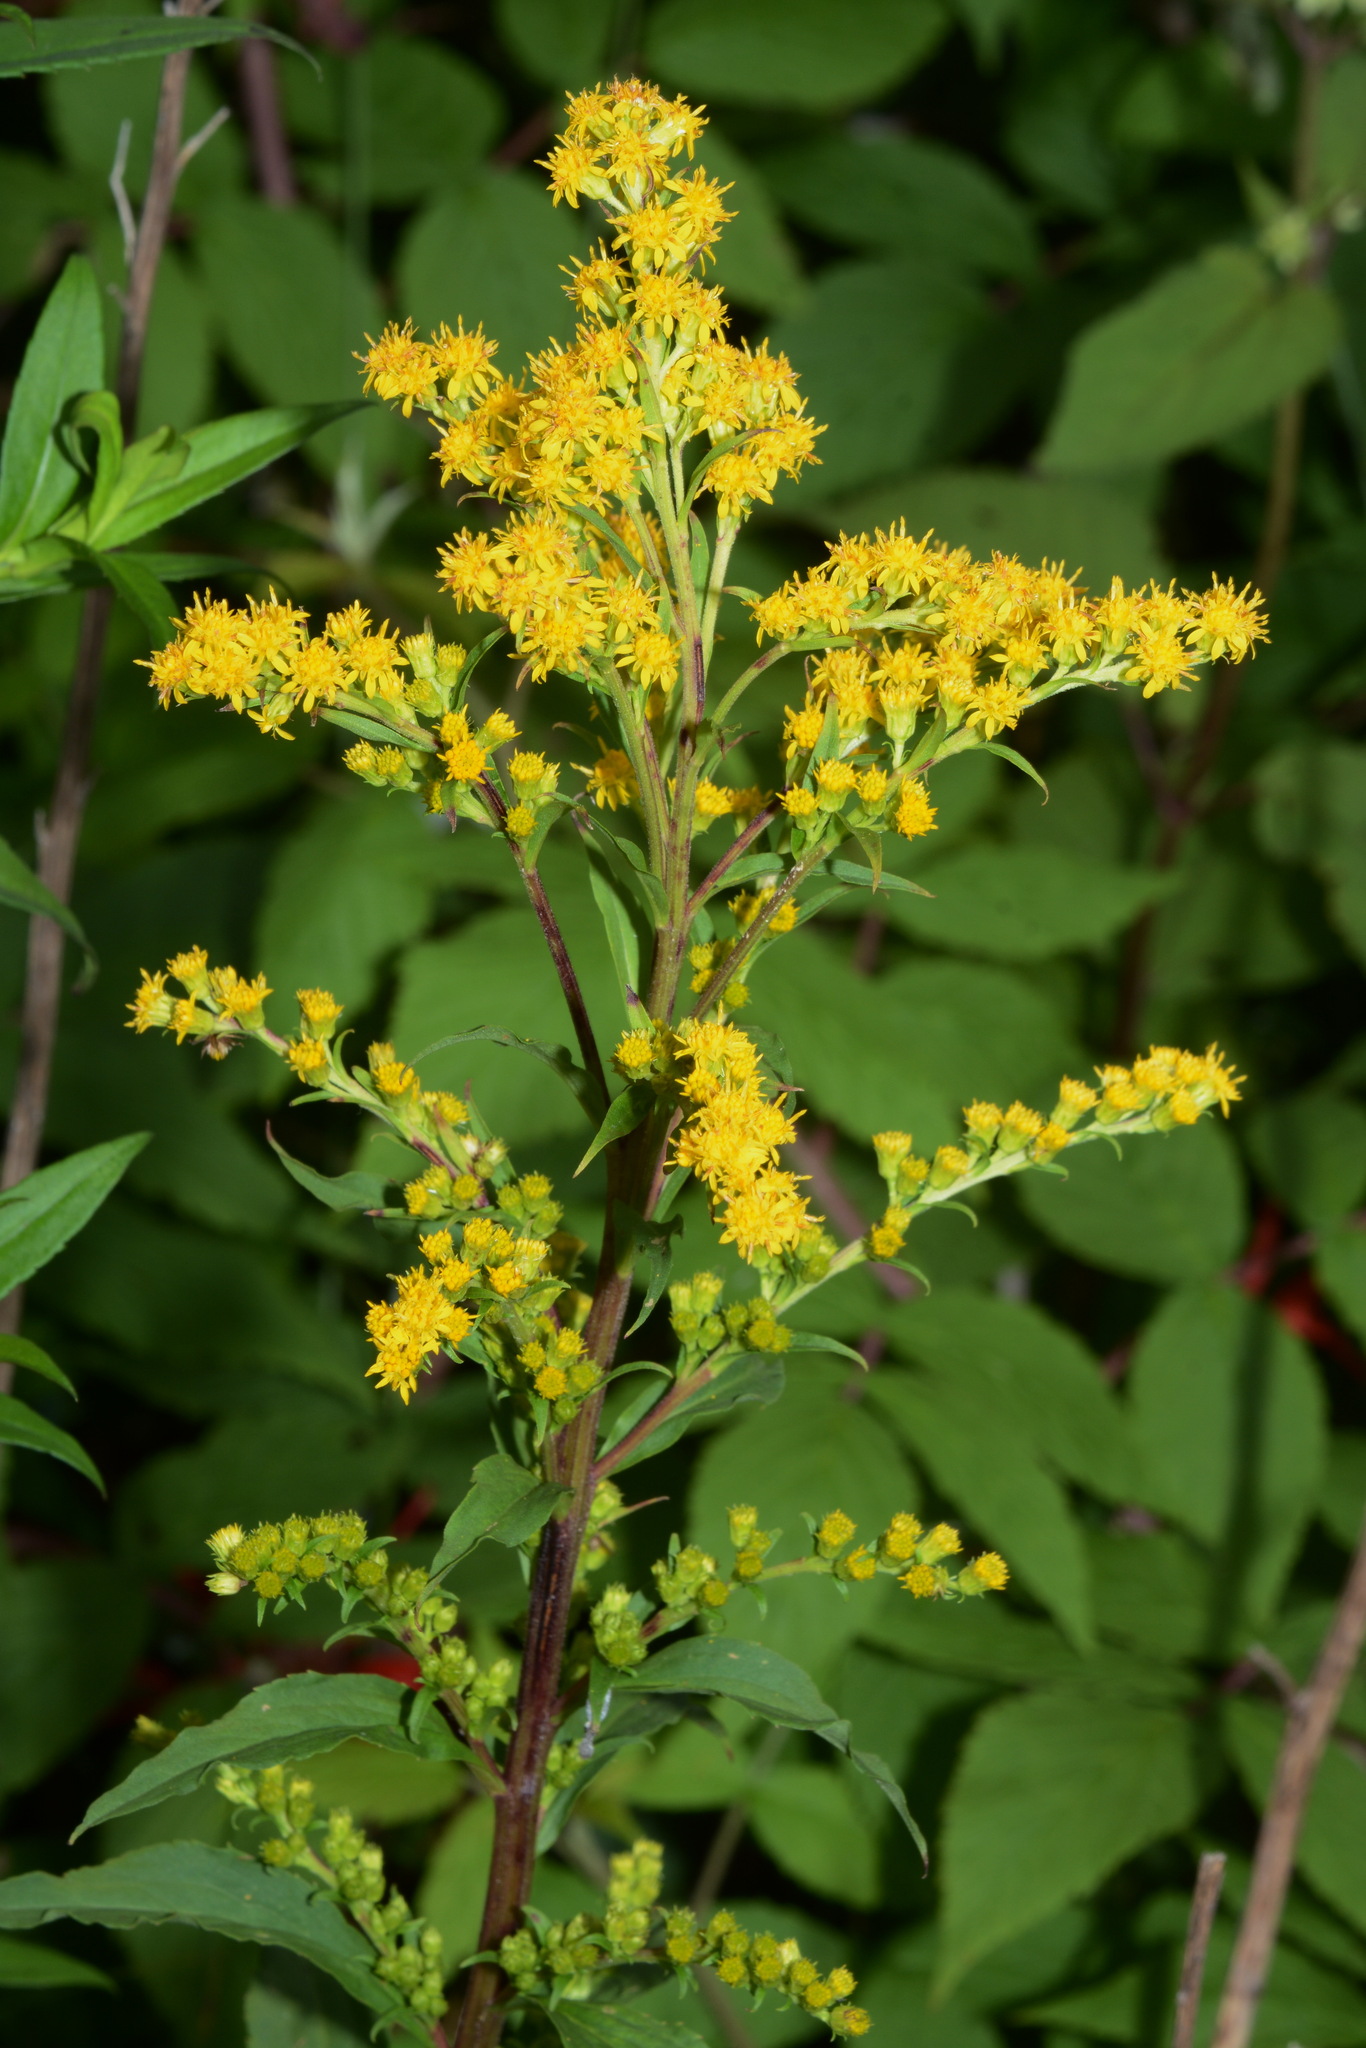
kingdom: Plantae
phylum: Tracheophyta
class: Magnoliopsida
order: Asterales
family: Asteraceae
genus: Solidago
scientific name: Solidago patula
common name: Rough-leaf goldenrod
